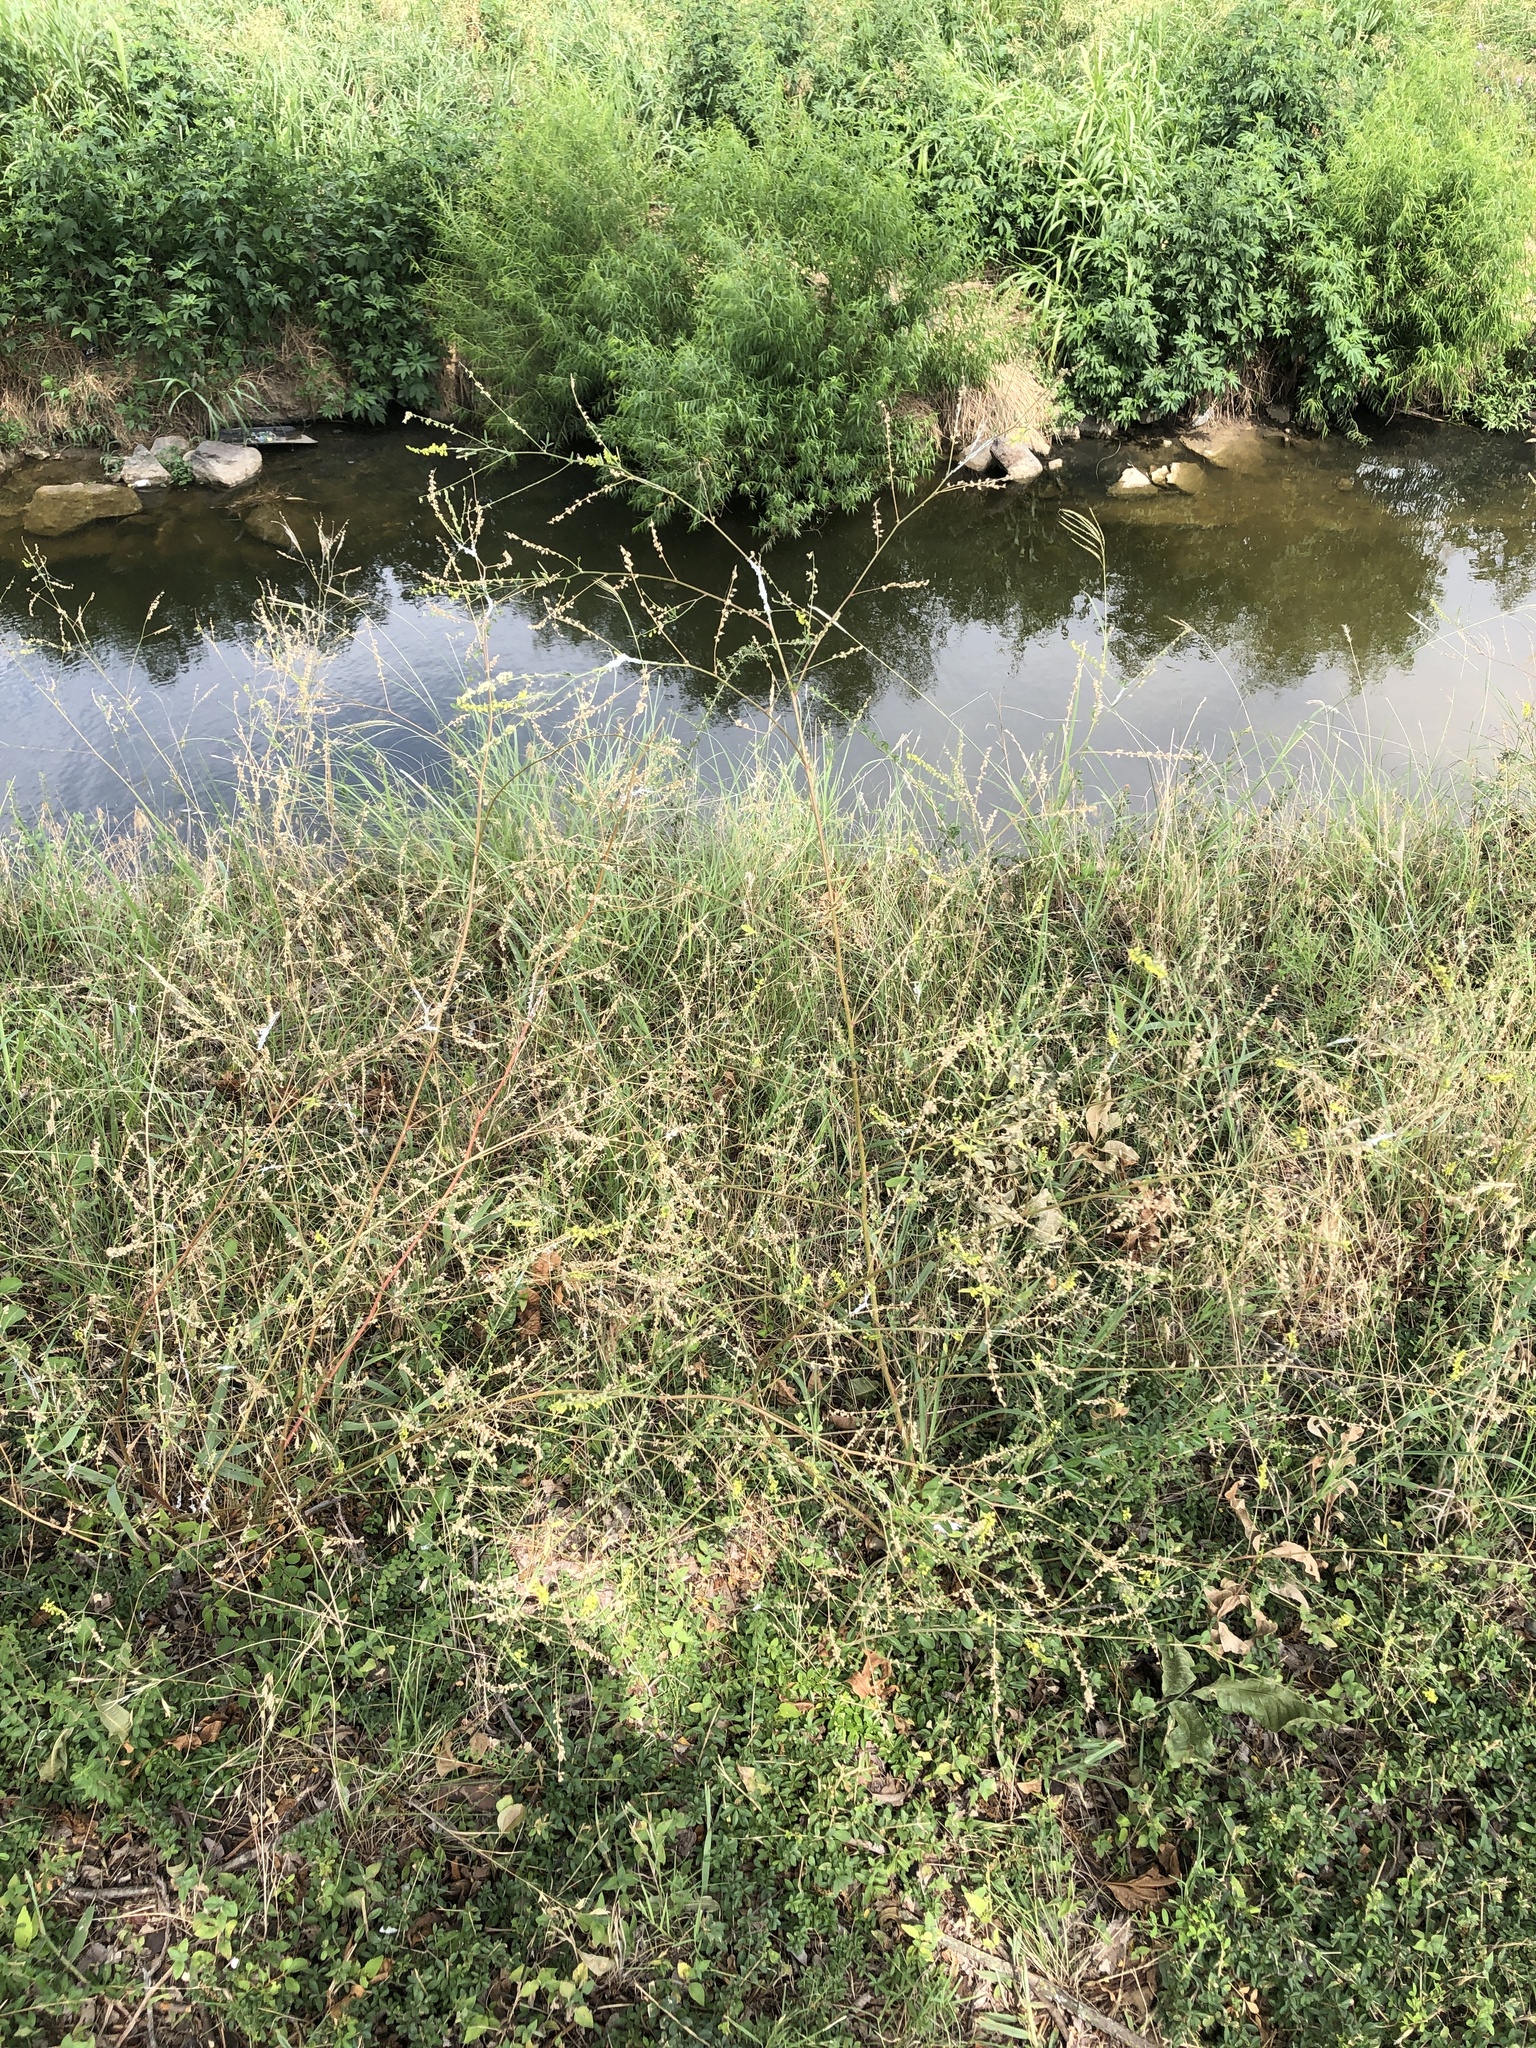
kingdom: Plantae
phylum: Tracheophyta
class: Magnoliopsida
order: Fabales
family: Fabaceae
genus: Melilotus
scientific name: Melilotus officinalis
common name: Sweetclover
